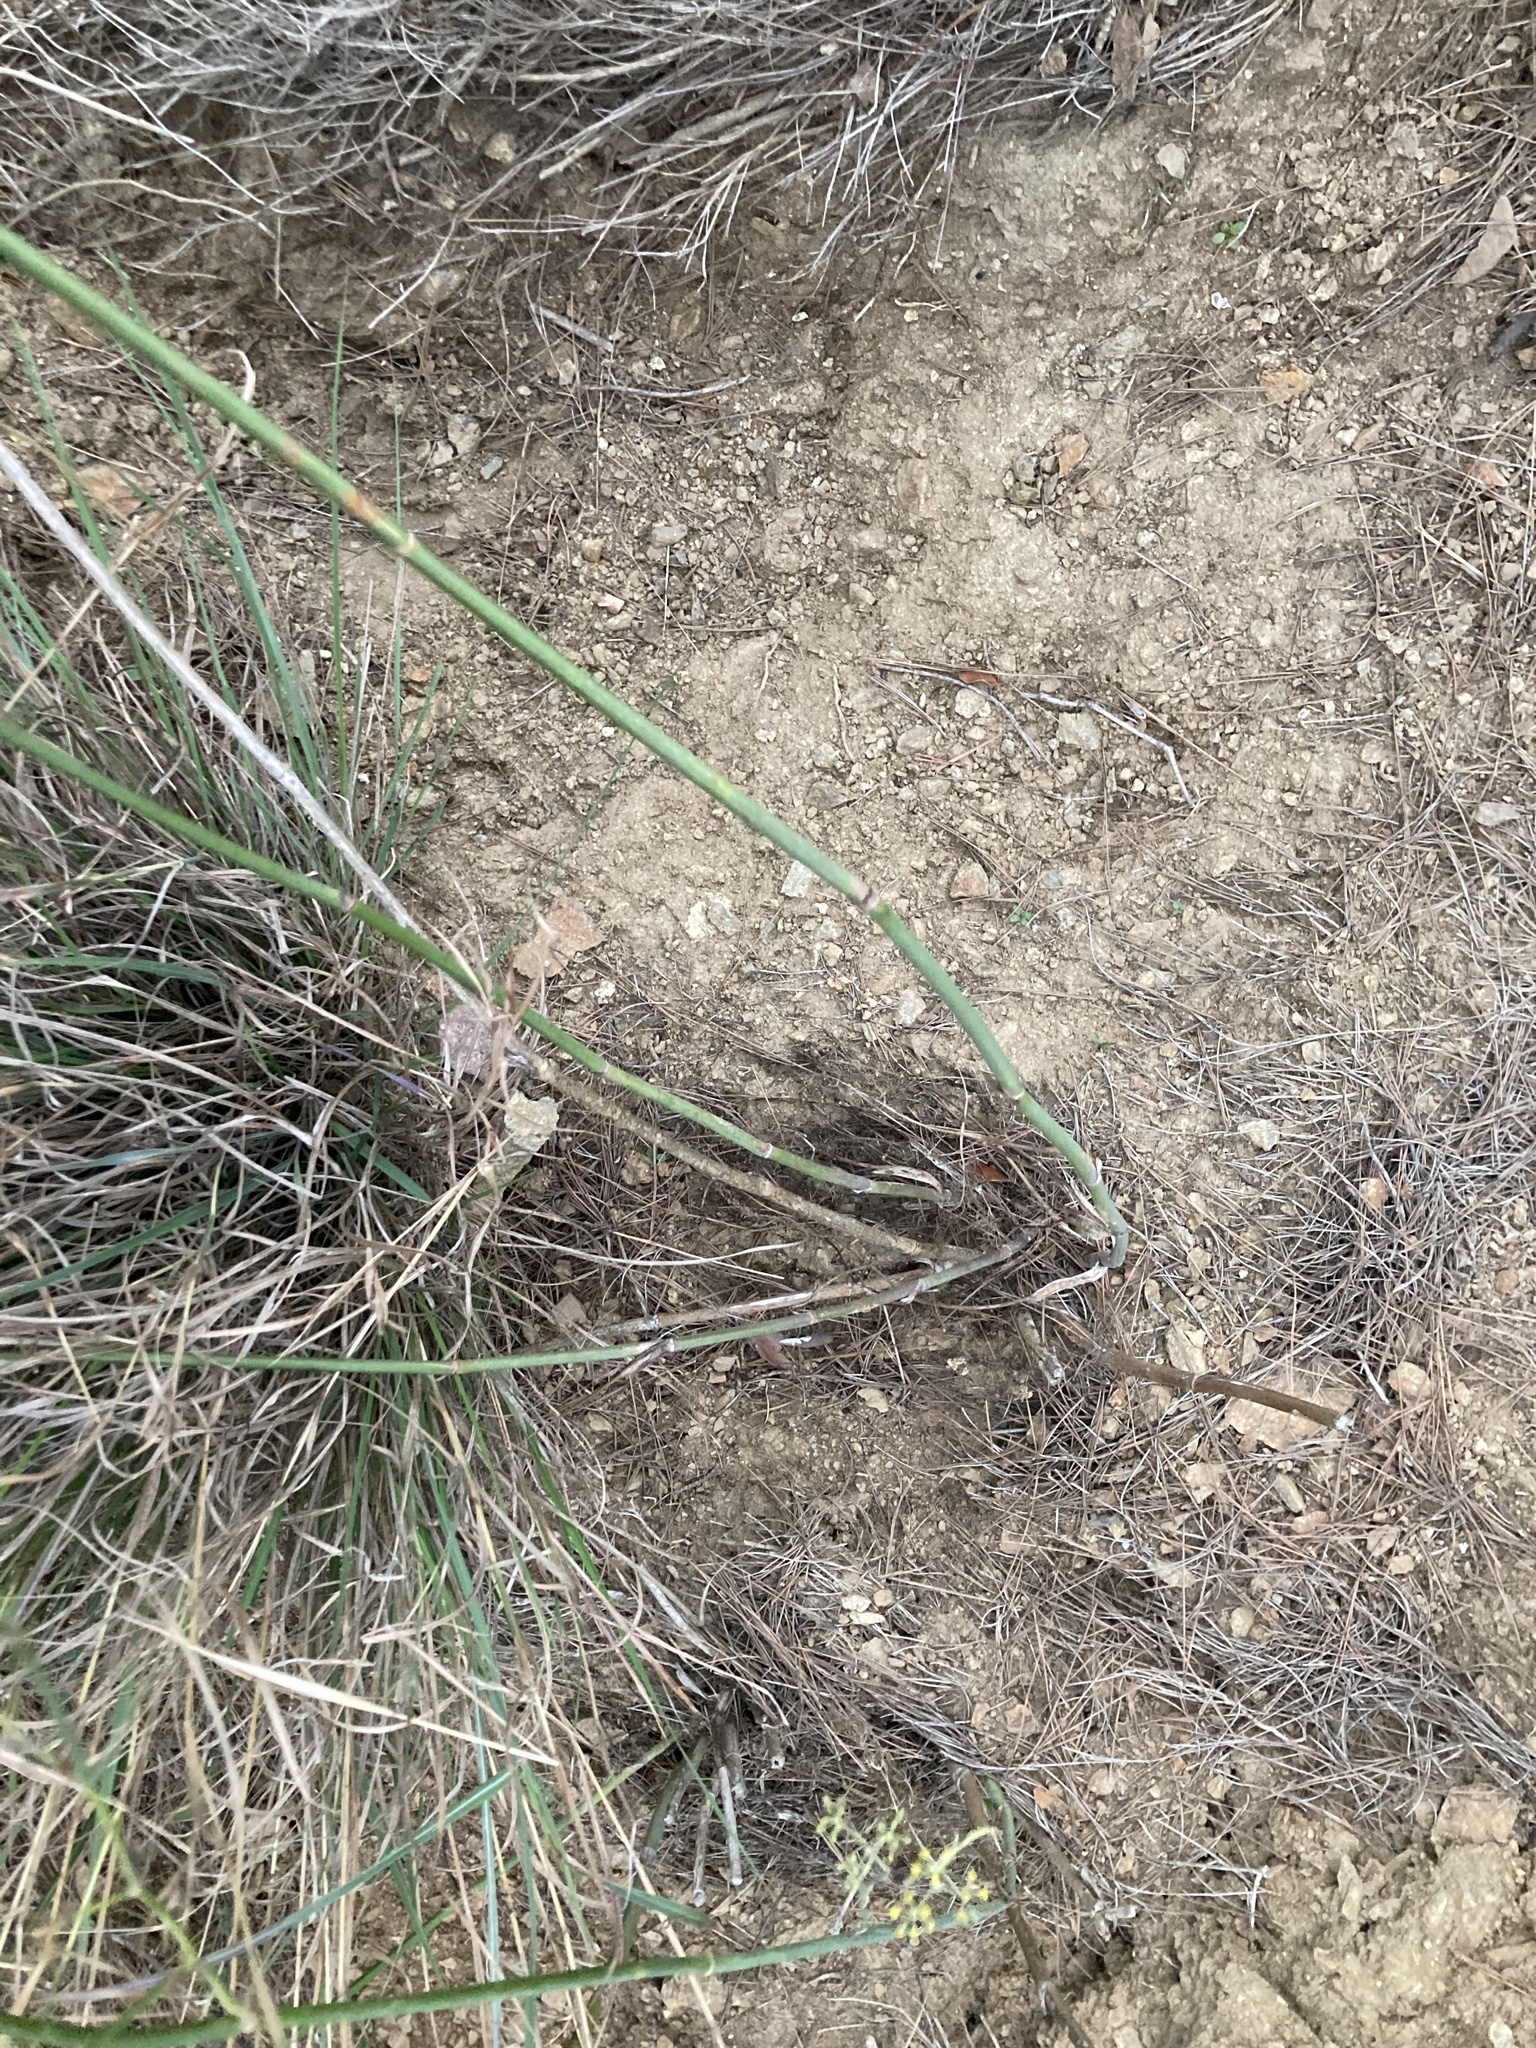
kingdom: Plantae
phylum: Tracheophyta
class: Magnoliopsida
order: Apiales
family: Apiaceae
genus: Foeniculum
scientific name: Foeniculum vulgare
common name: Fennel
